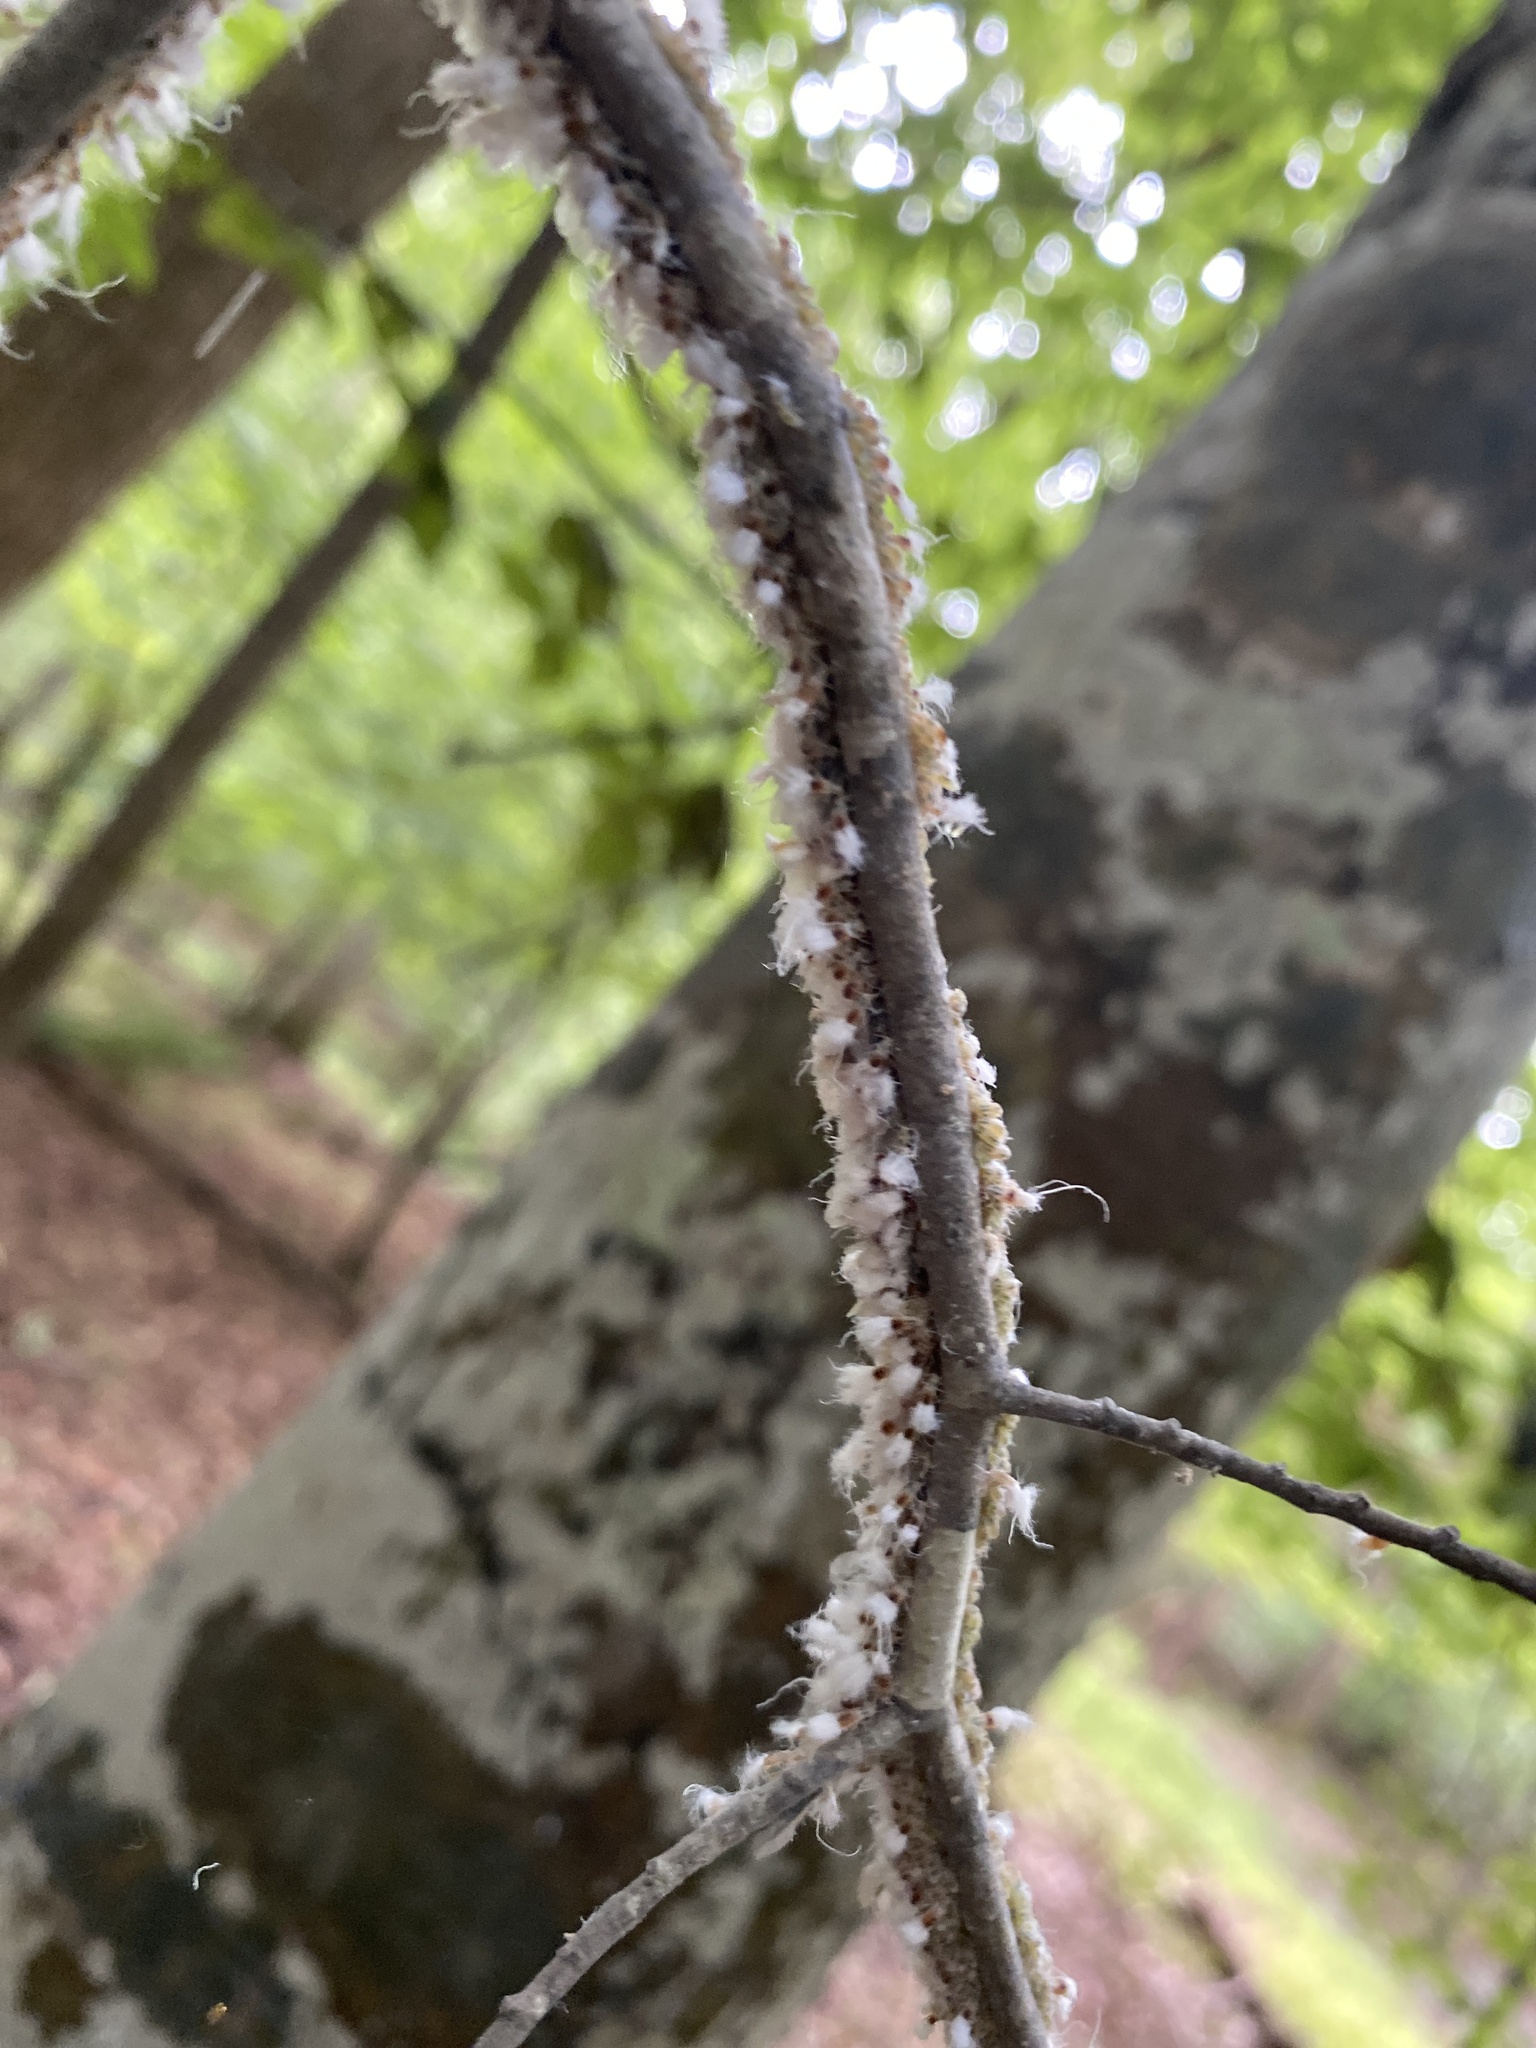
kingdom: Animalia
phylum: Arthropoda
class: Insecta
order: Hemiptera
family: Aphididae
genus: Grylloprociphilus
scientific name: Grylloprociphilus imbricator
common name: Beech blight aphid
